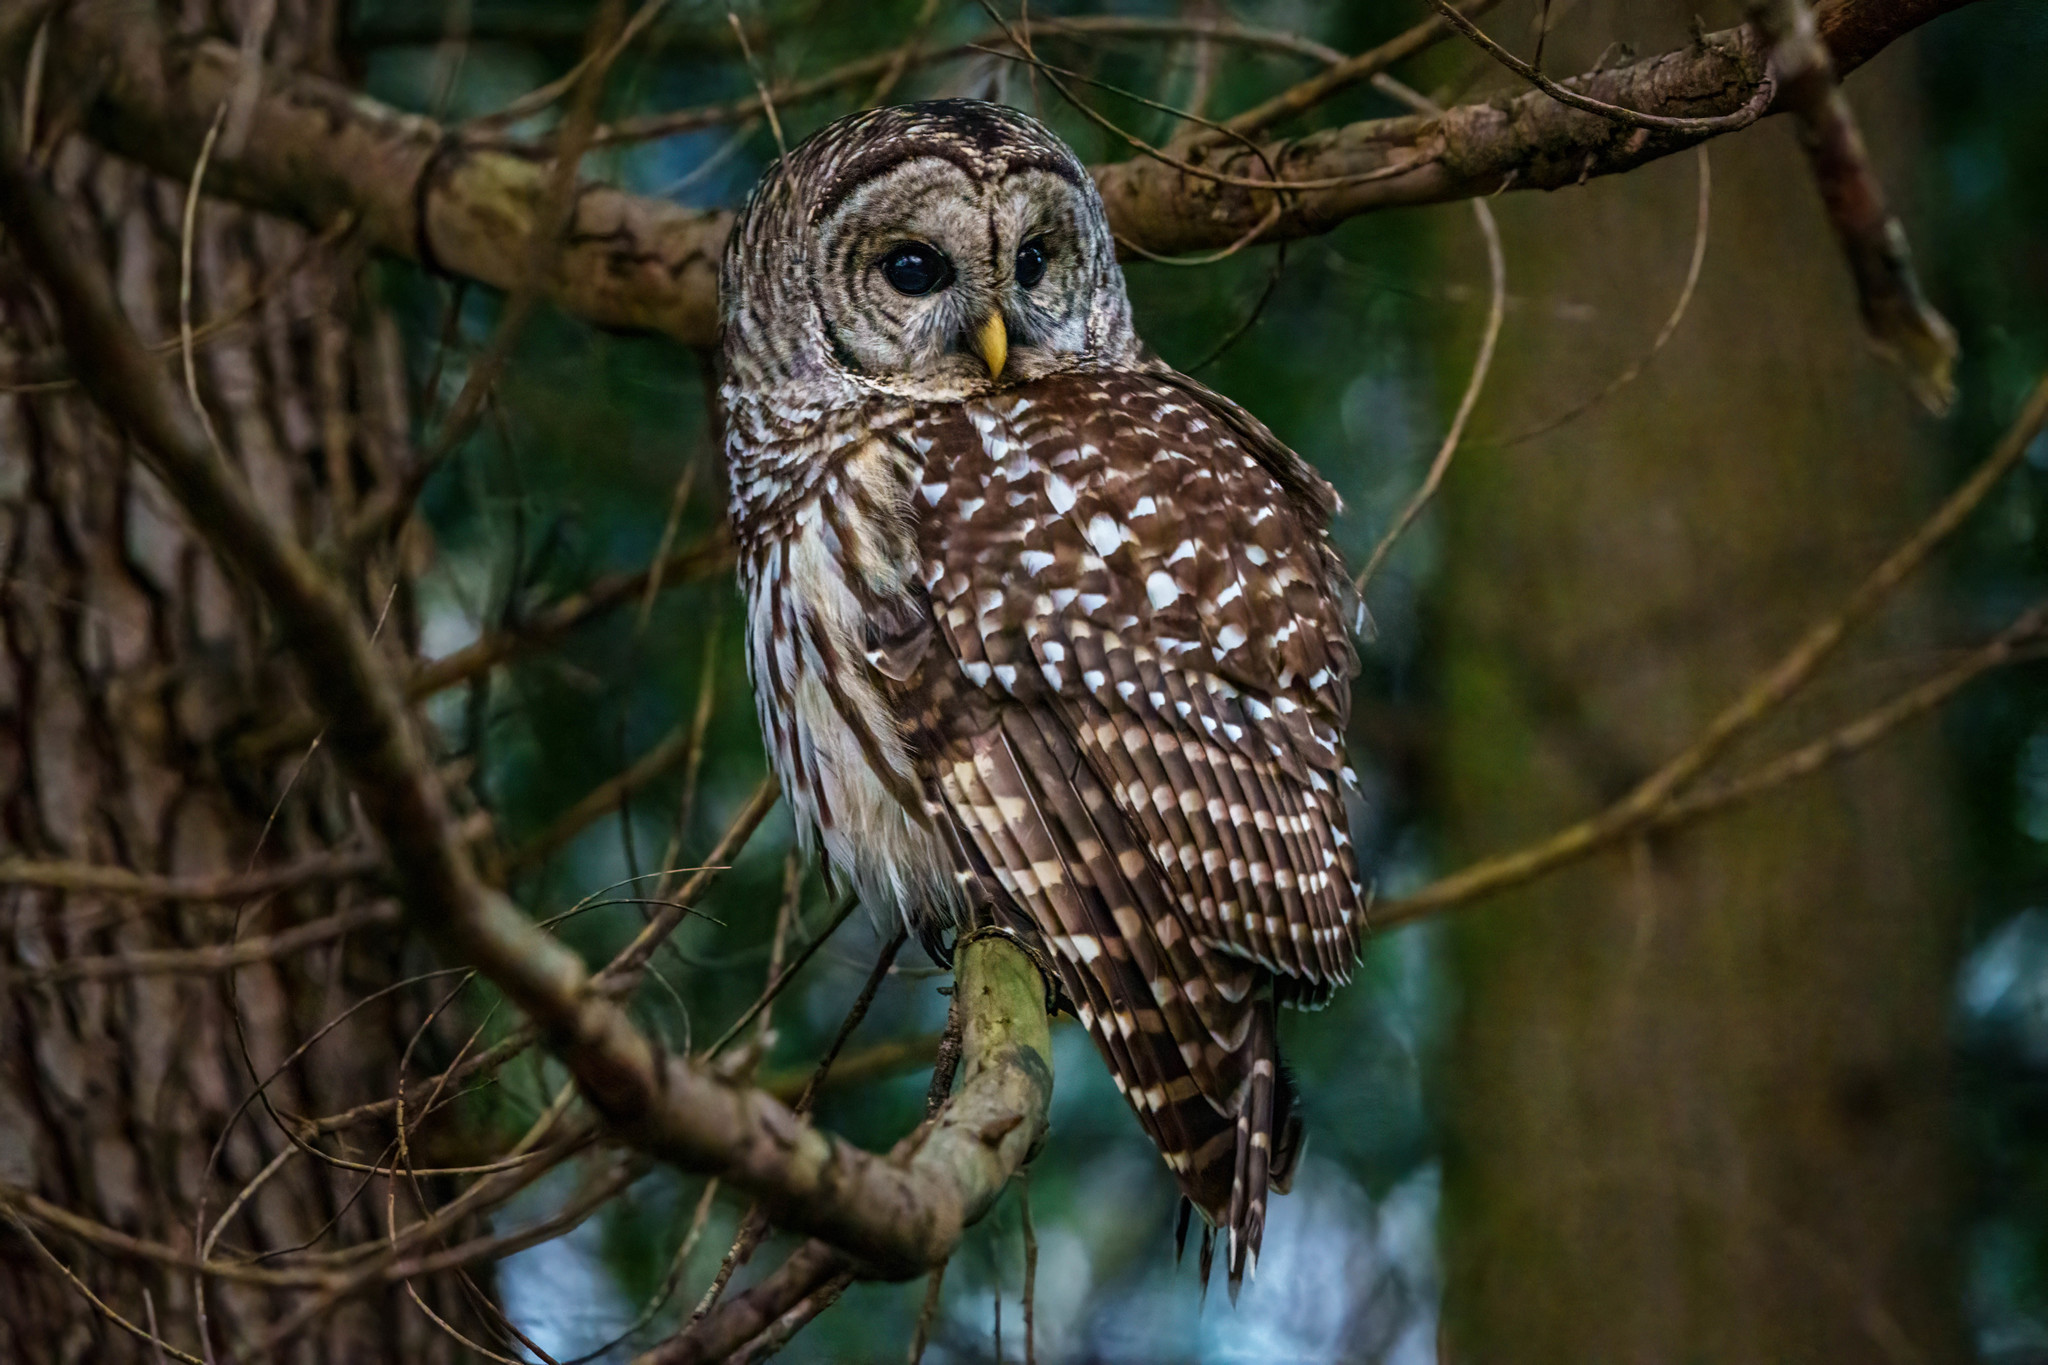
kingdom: Animalia
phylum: Chordata
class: Aves
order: Strigiformes
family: Strigidae
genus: Strix
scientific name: Strix varia
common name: Barred owl
